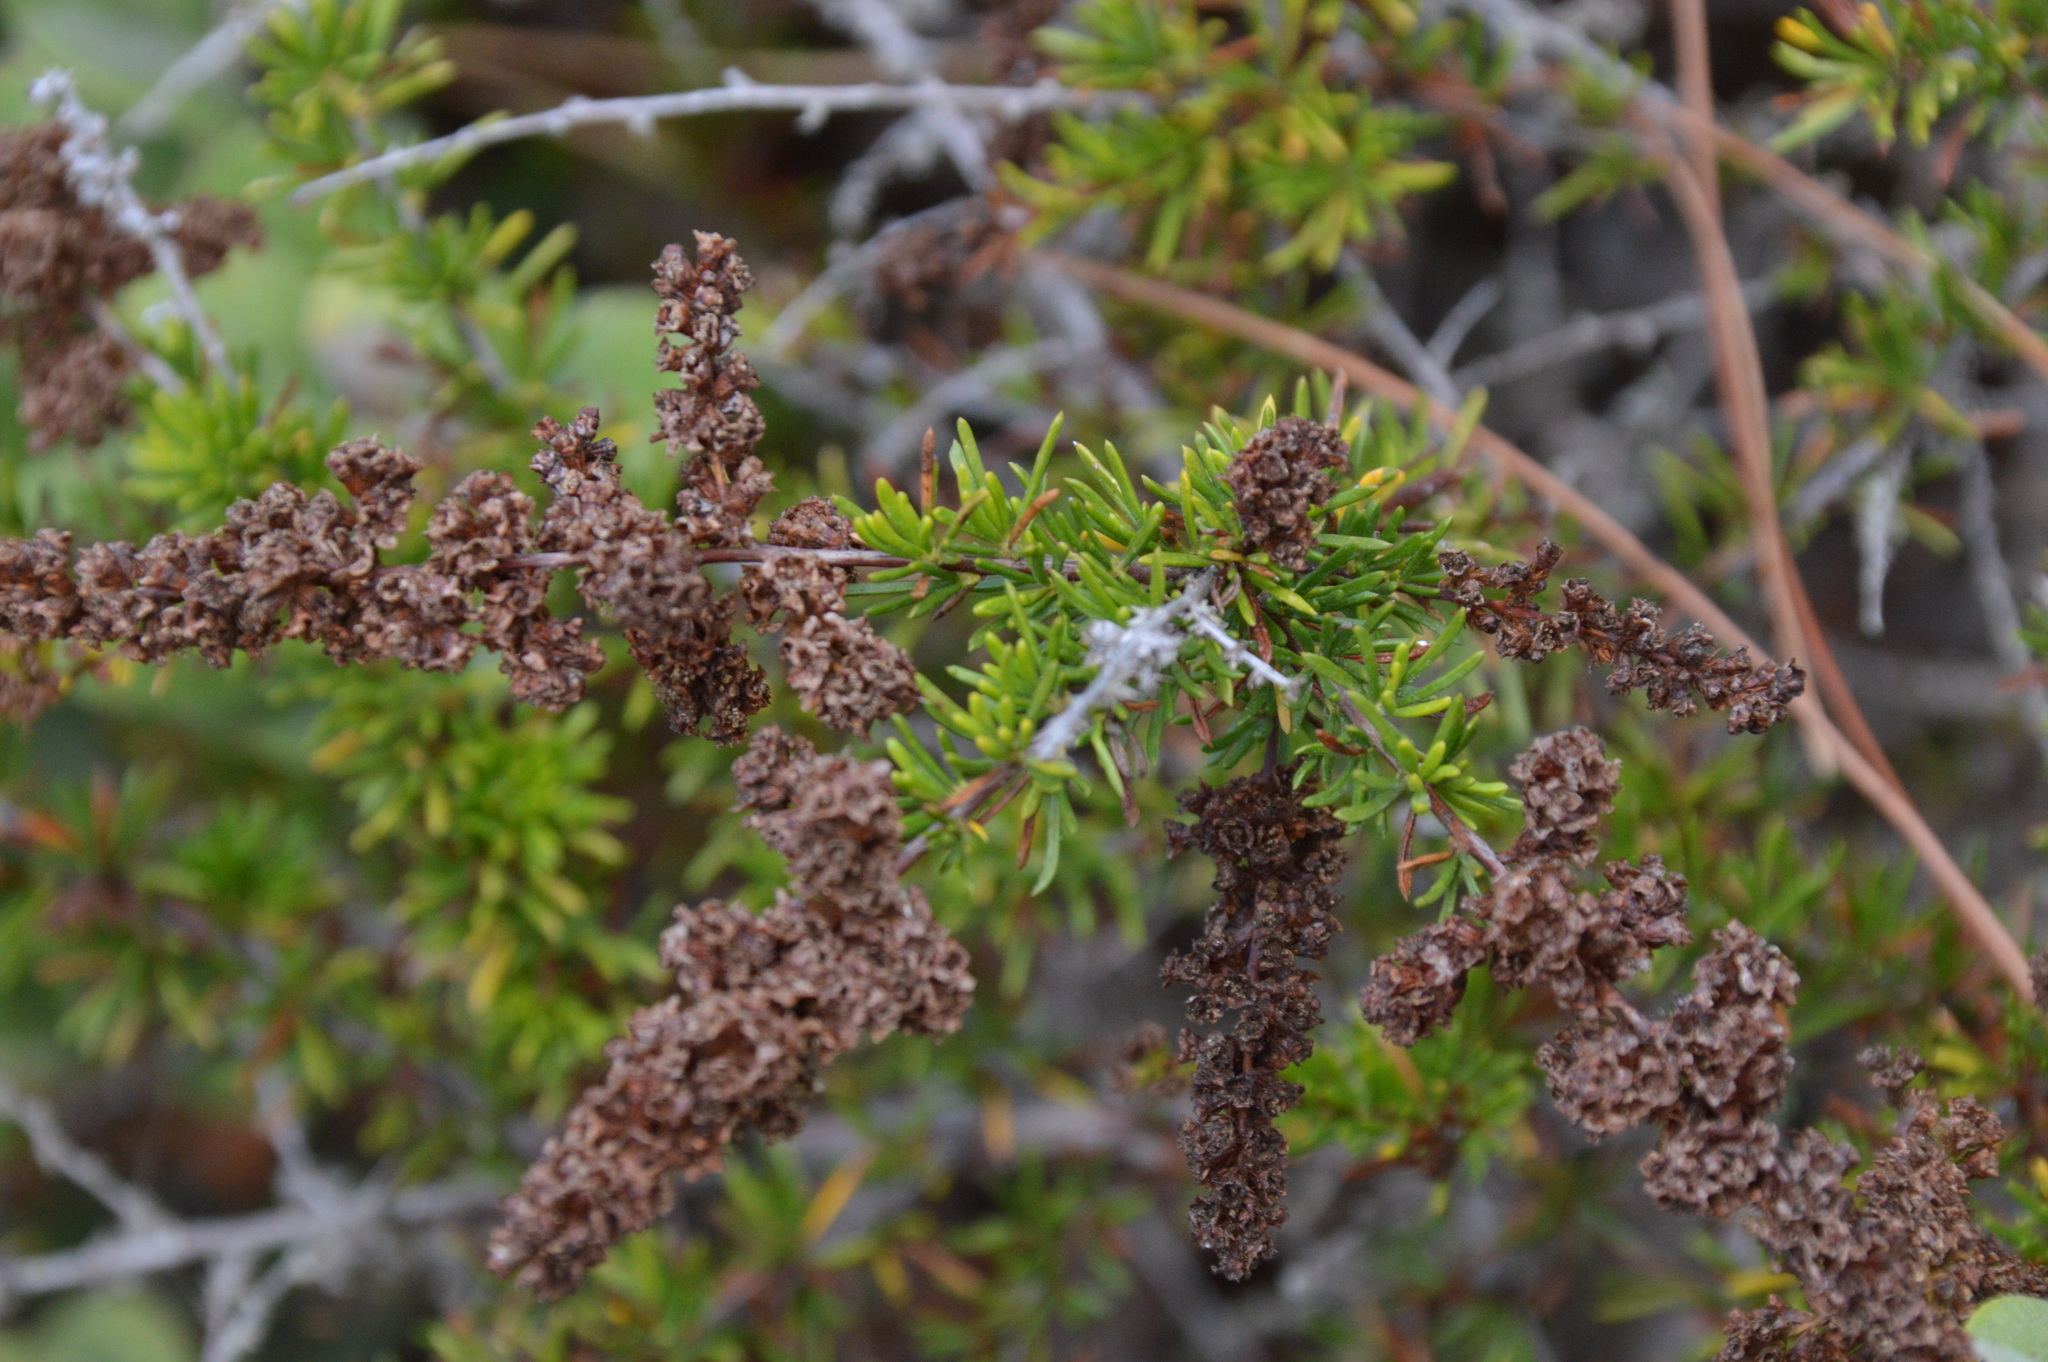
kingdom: Plantae
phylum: Tracheophyta
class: Magnoliopsida
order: Rosales
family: Rosaceae
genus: Adenostoma
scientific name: Adenostoma fasciculatum
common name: Chamise
